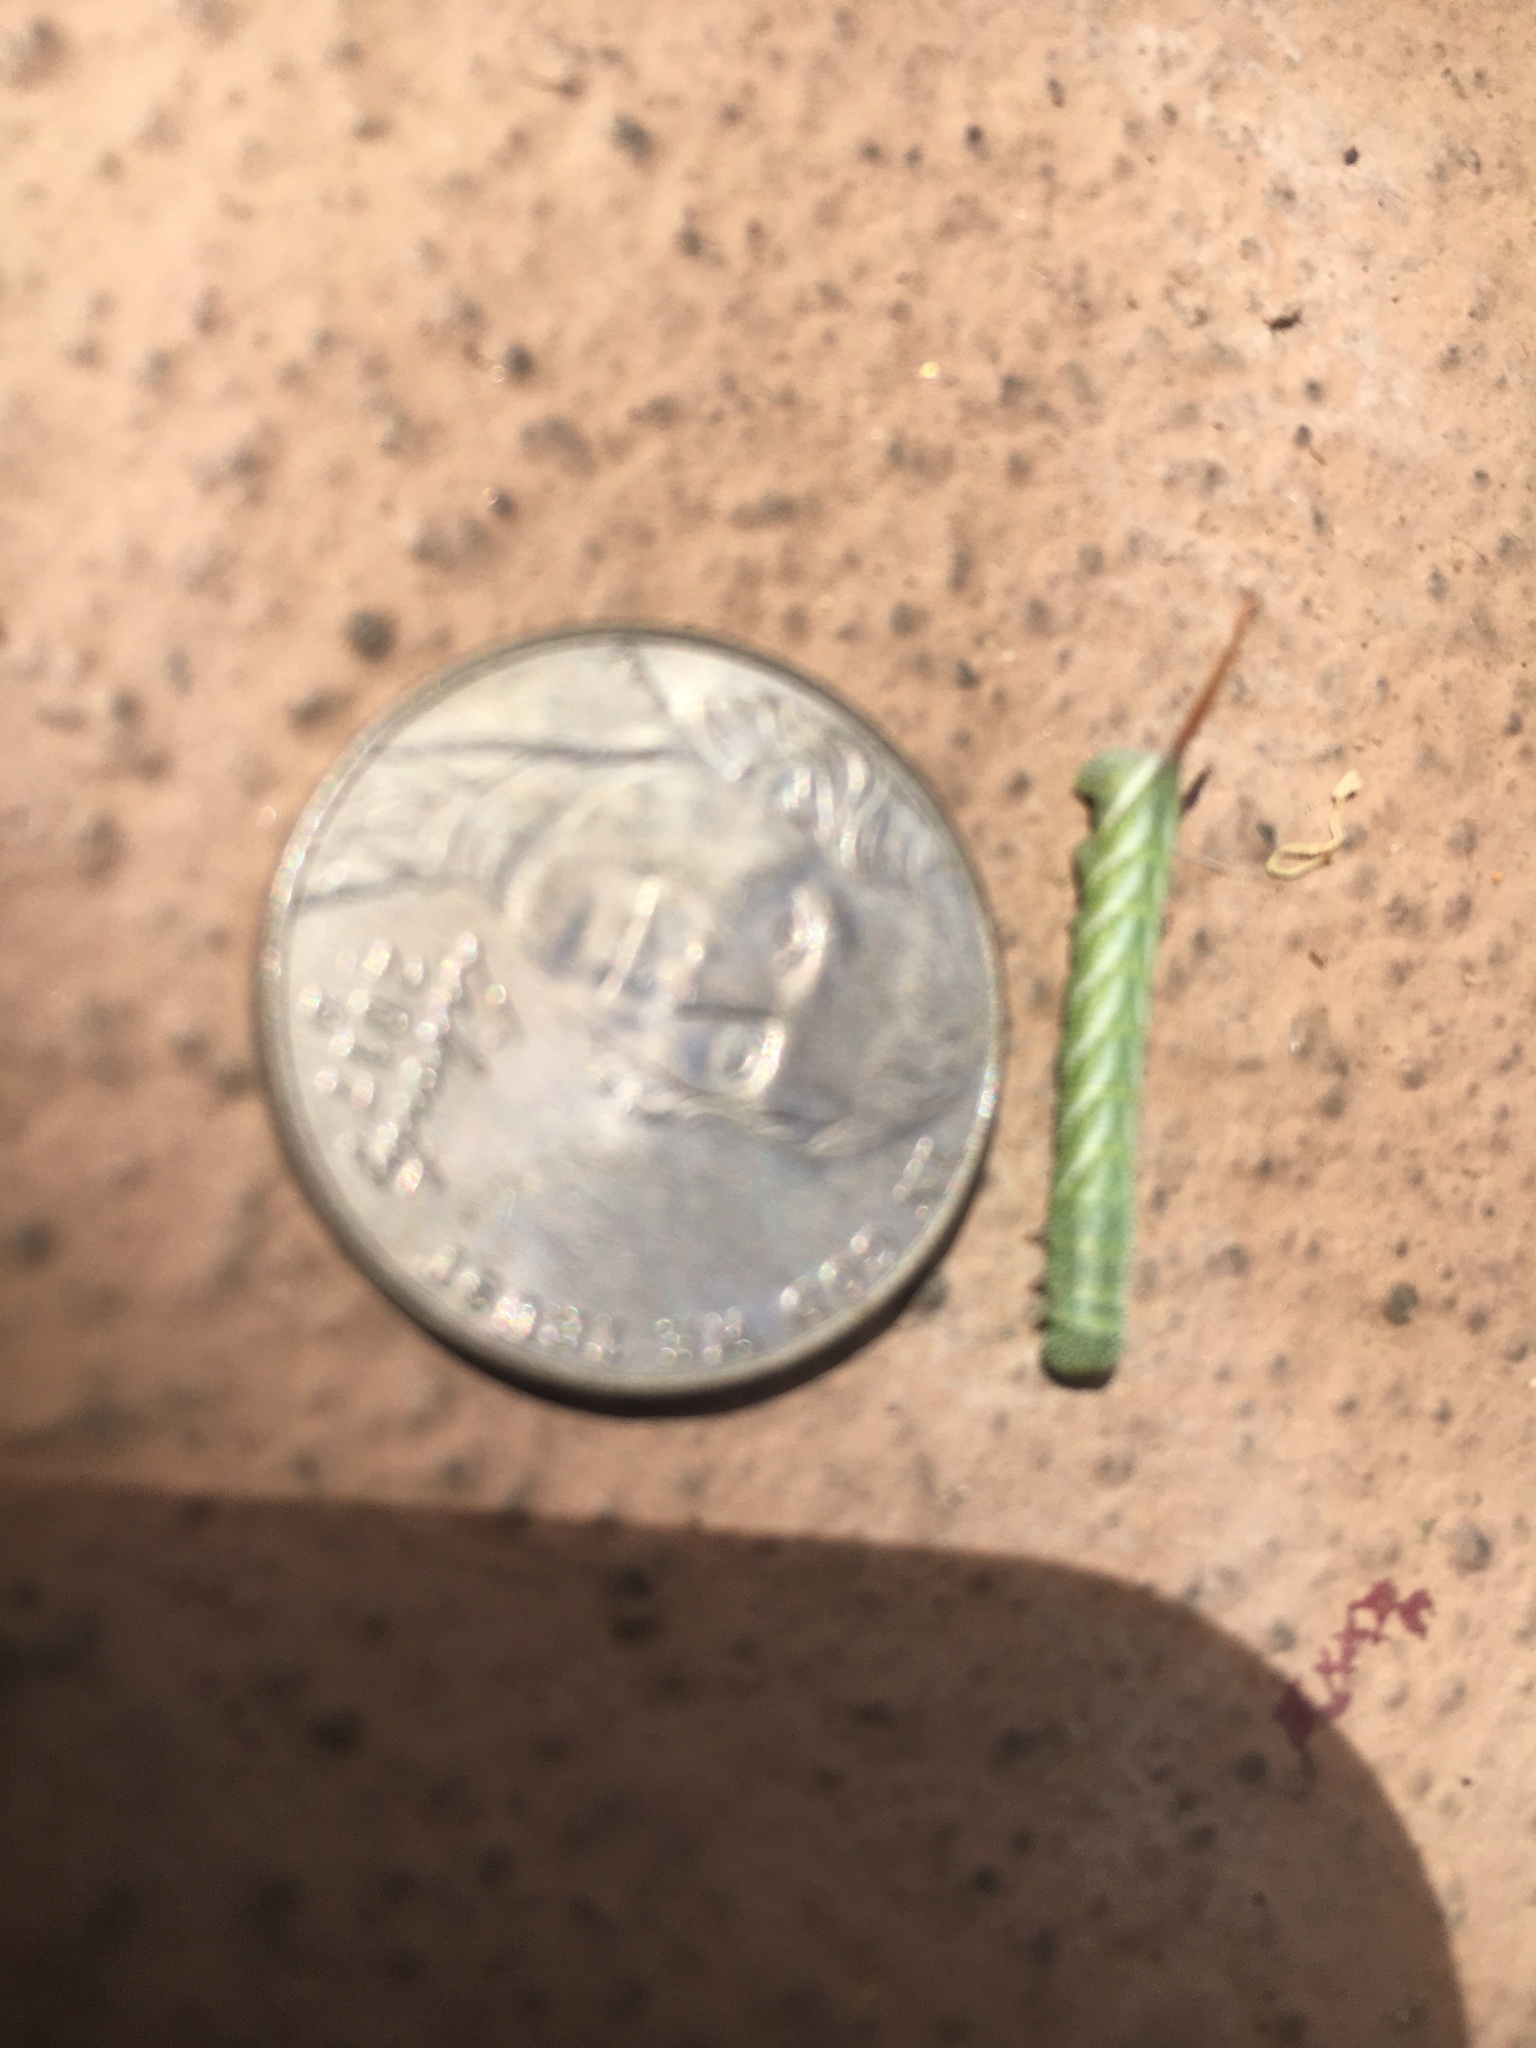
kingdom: Animalia
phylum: Arthropoda
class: Insecta
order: Lepidoptera
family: Sphingidae
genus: Manduca
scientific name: Manduca sexta
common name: Carolina sphinx
